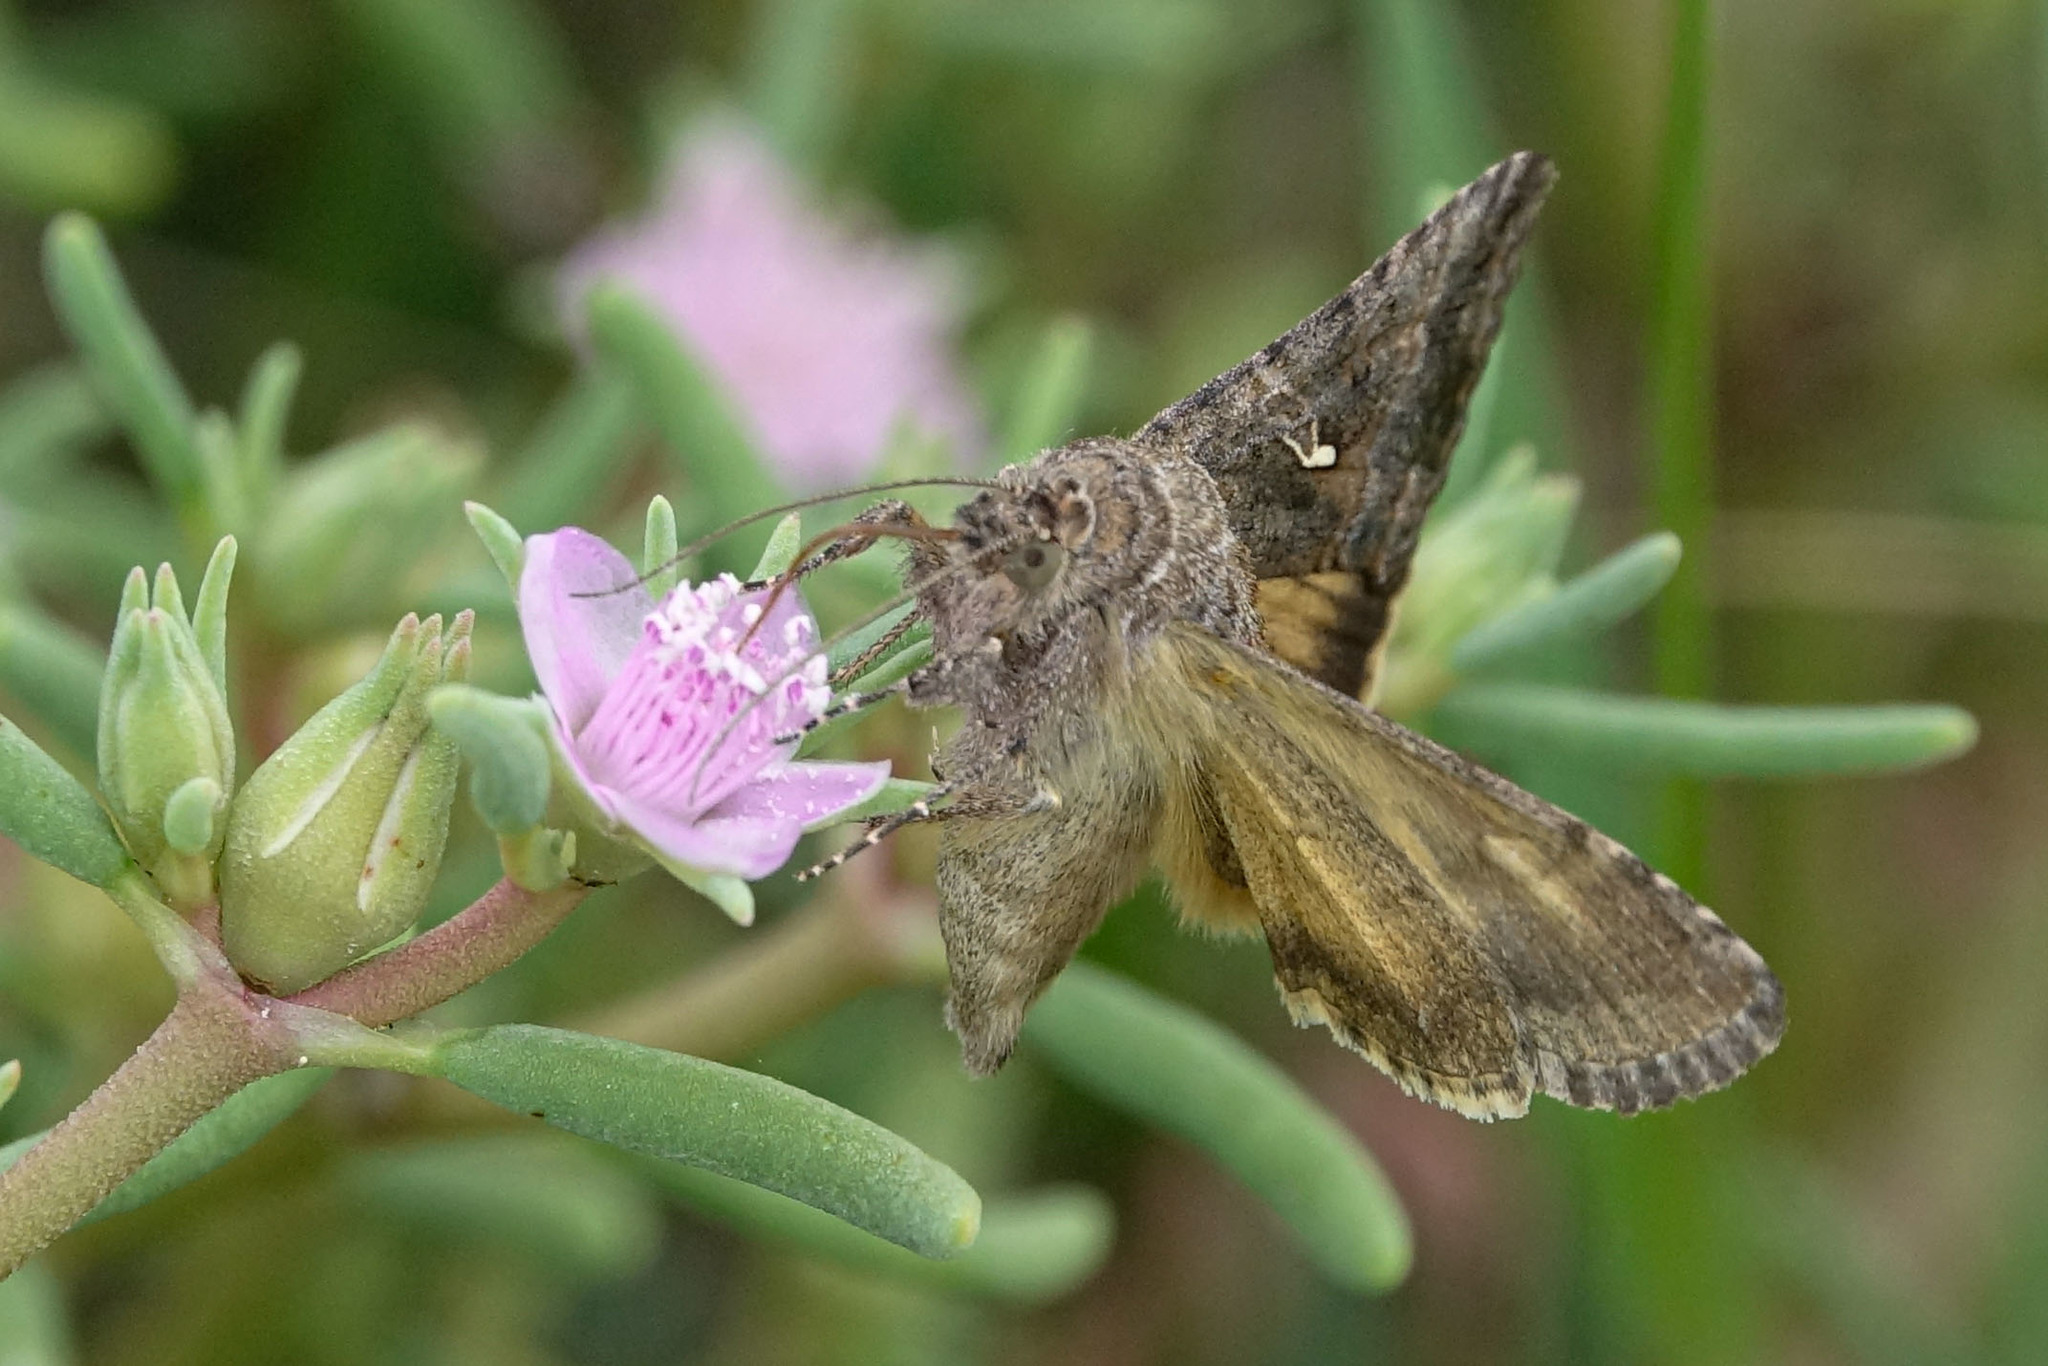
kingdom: Animalia
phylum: Arthropoda
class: Insecta
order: Lepidoptera
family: Noctuidae
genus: Rachiplusia
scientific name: Rachiplusia nu
